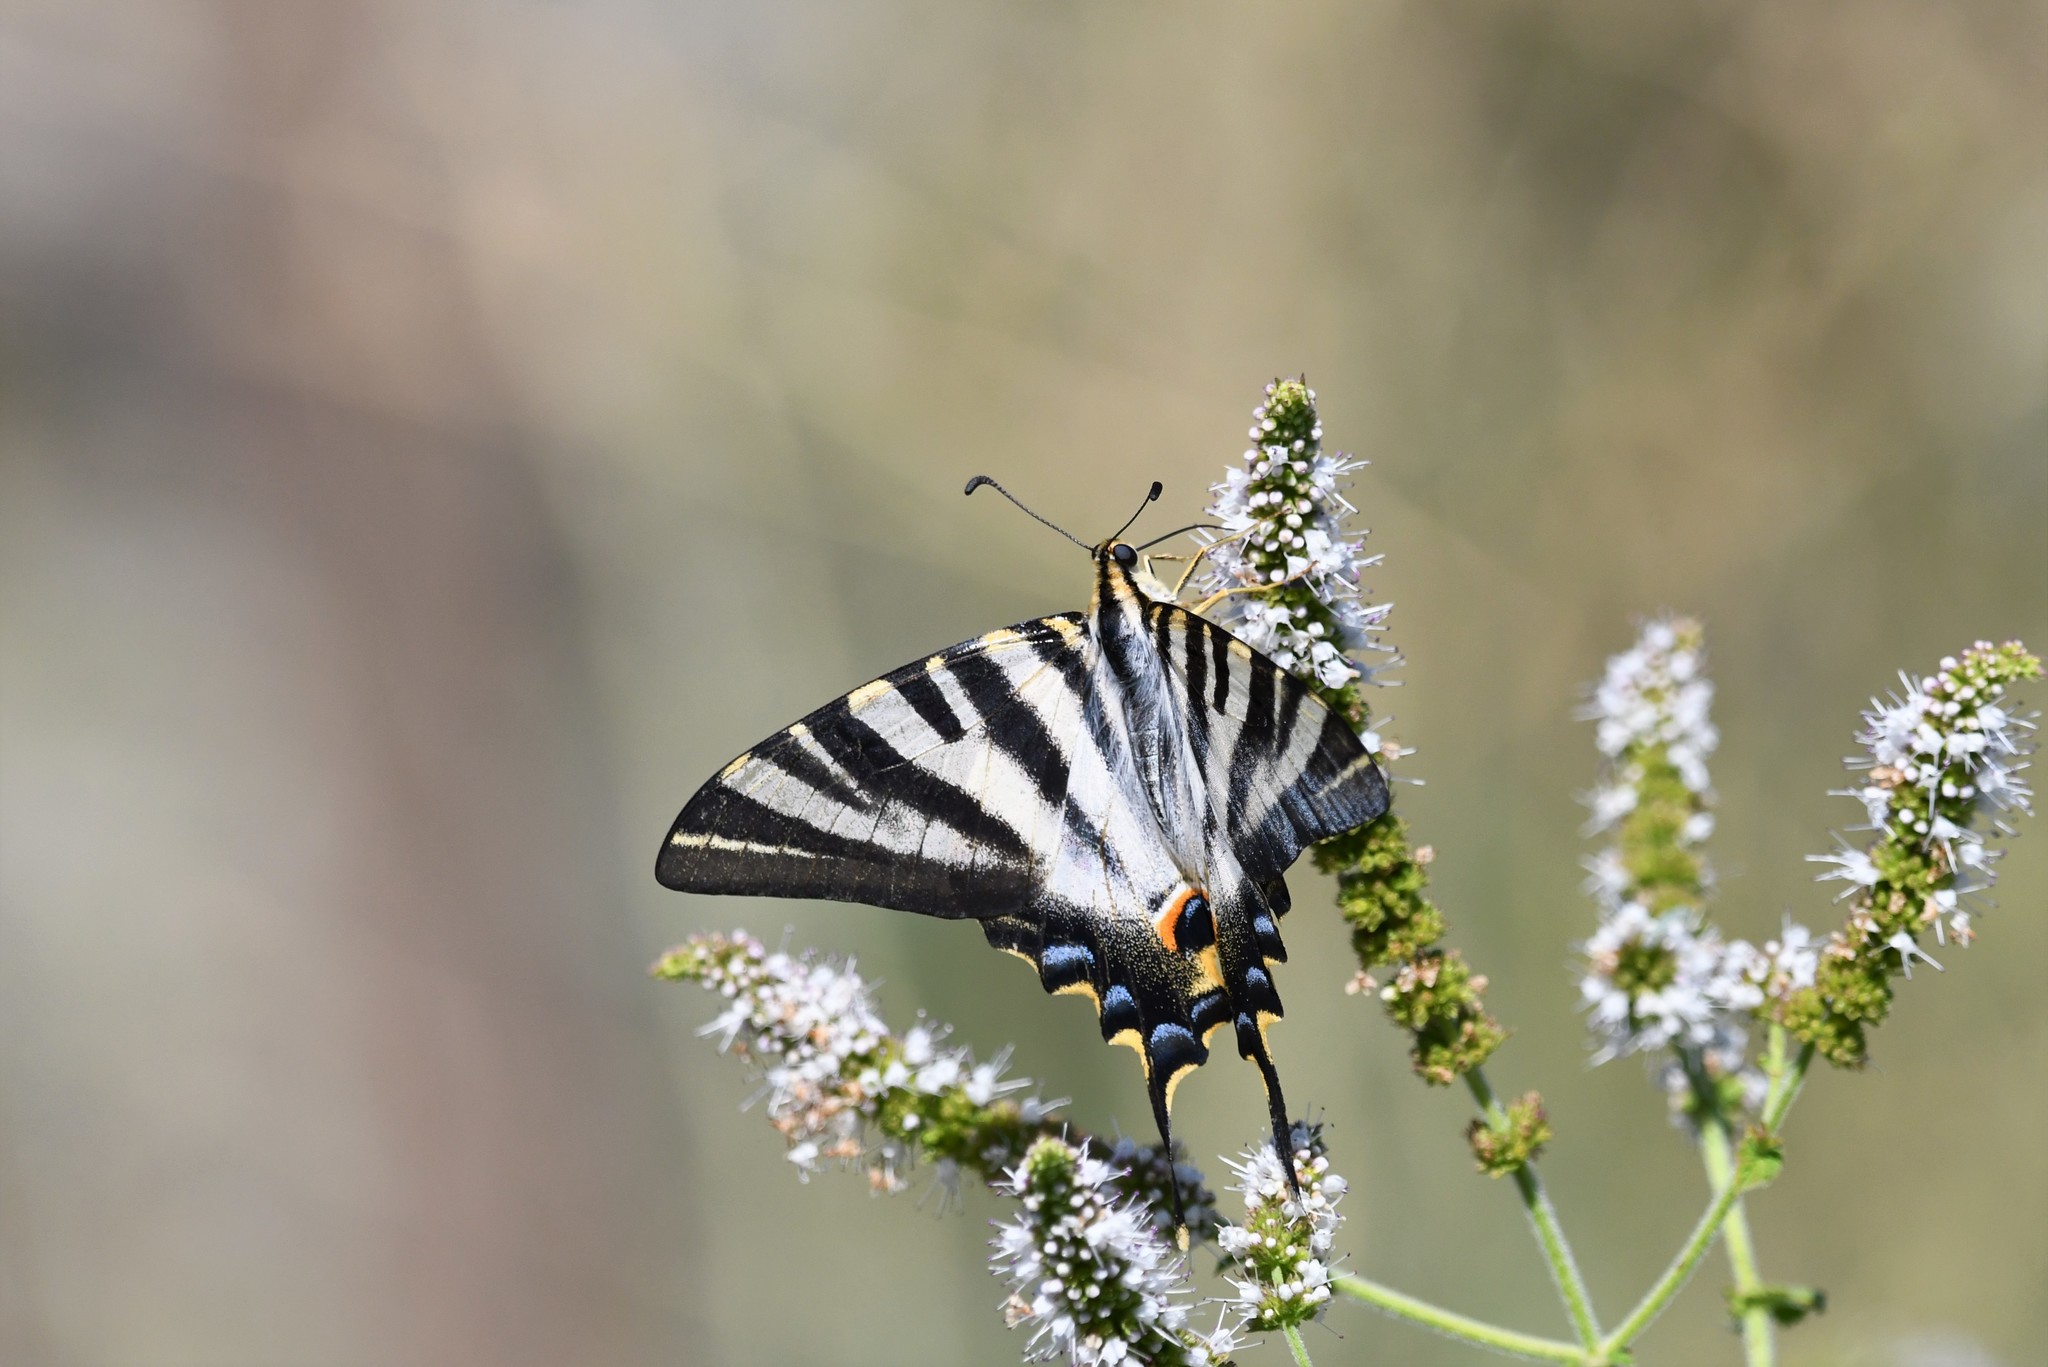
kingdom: Animalia
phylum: Arthropoda
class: Insecta
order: Lepidoptera
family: Papilionidae
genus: Iphiclides
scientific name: Iphiclides feisthamelii
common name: Iberian scarce swallowtail
